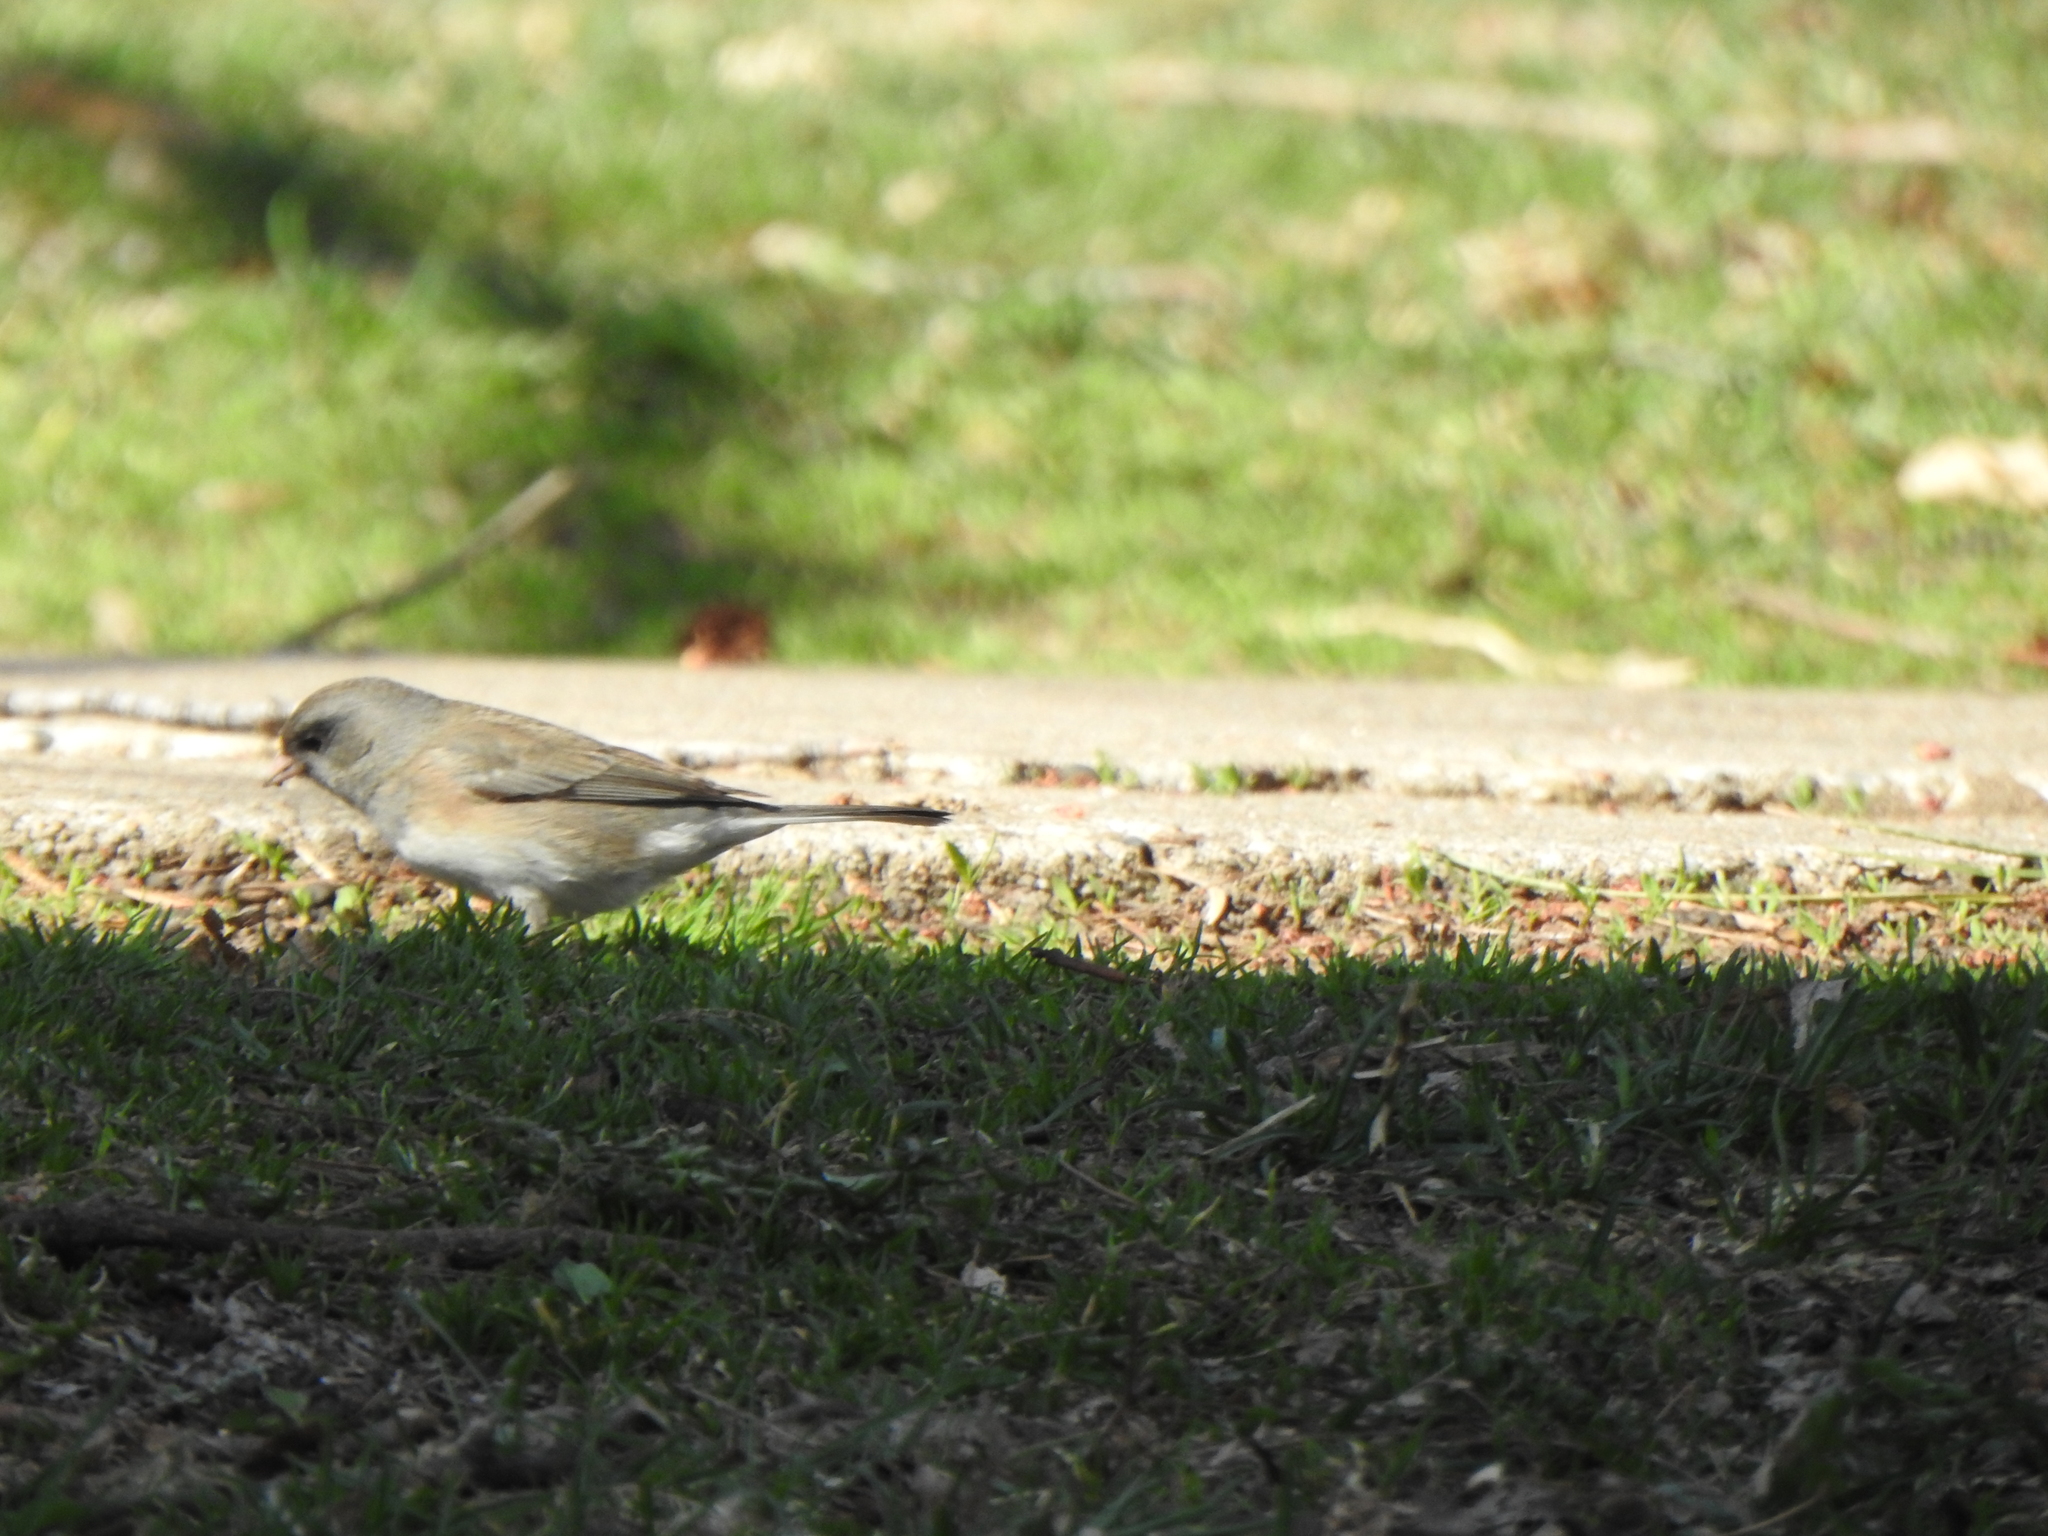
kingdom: Animalia
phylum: Chordata
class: Aves
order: Passeriformes
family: Passerellidae
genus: Junco
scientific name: Junco hyemalis
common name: Dark-eyed junco
